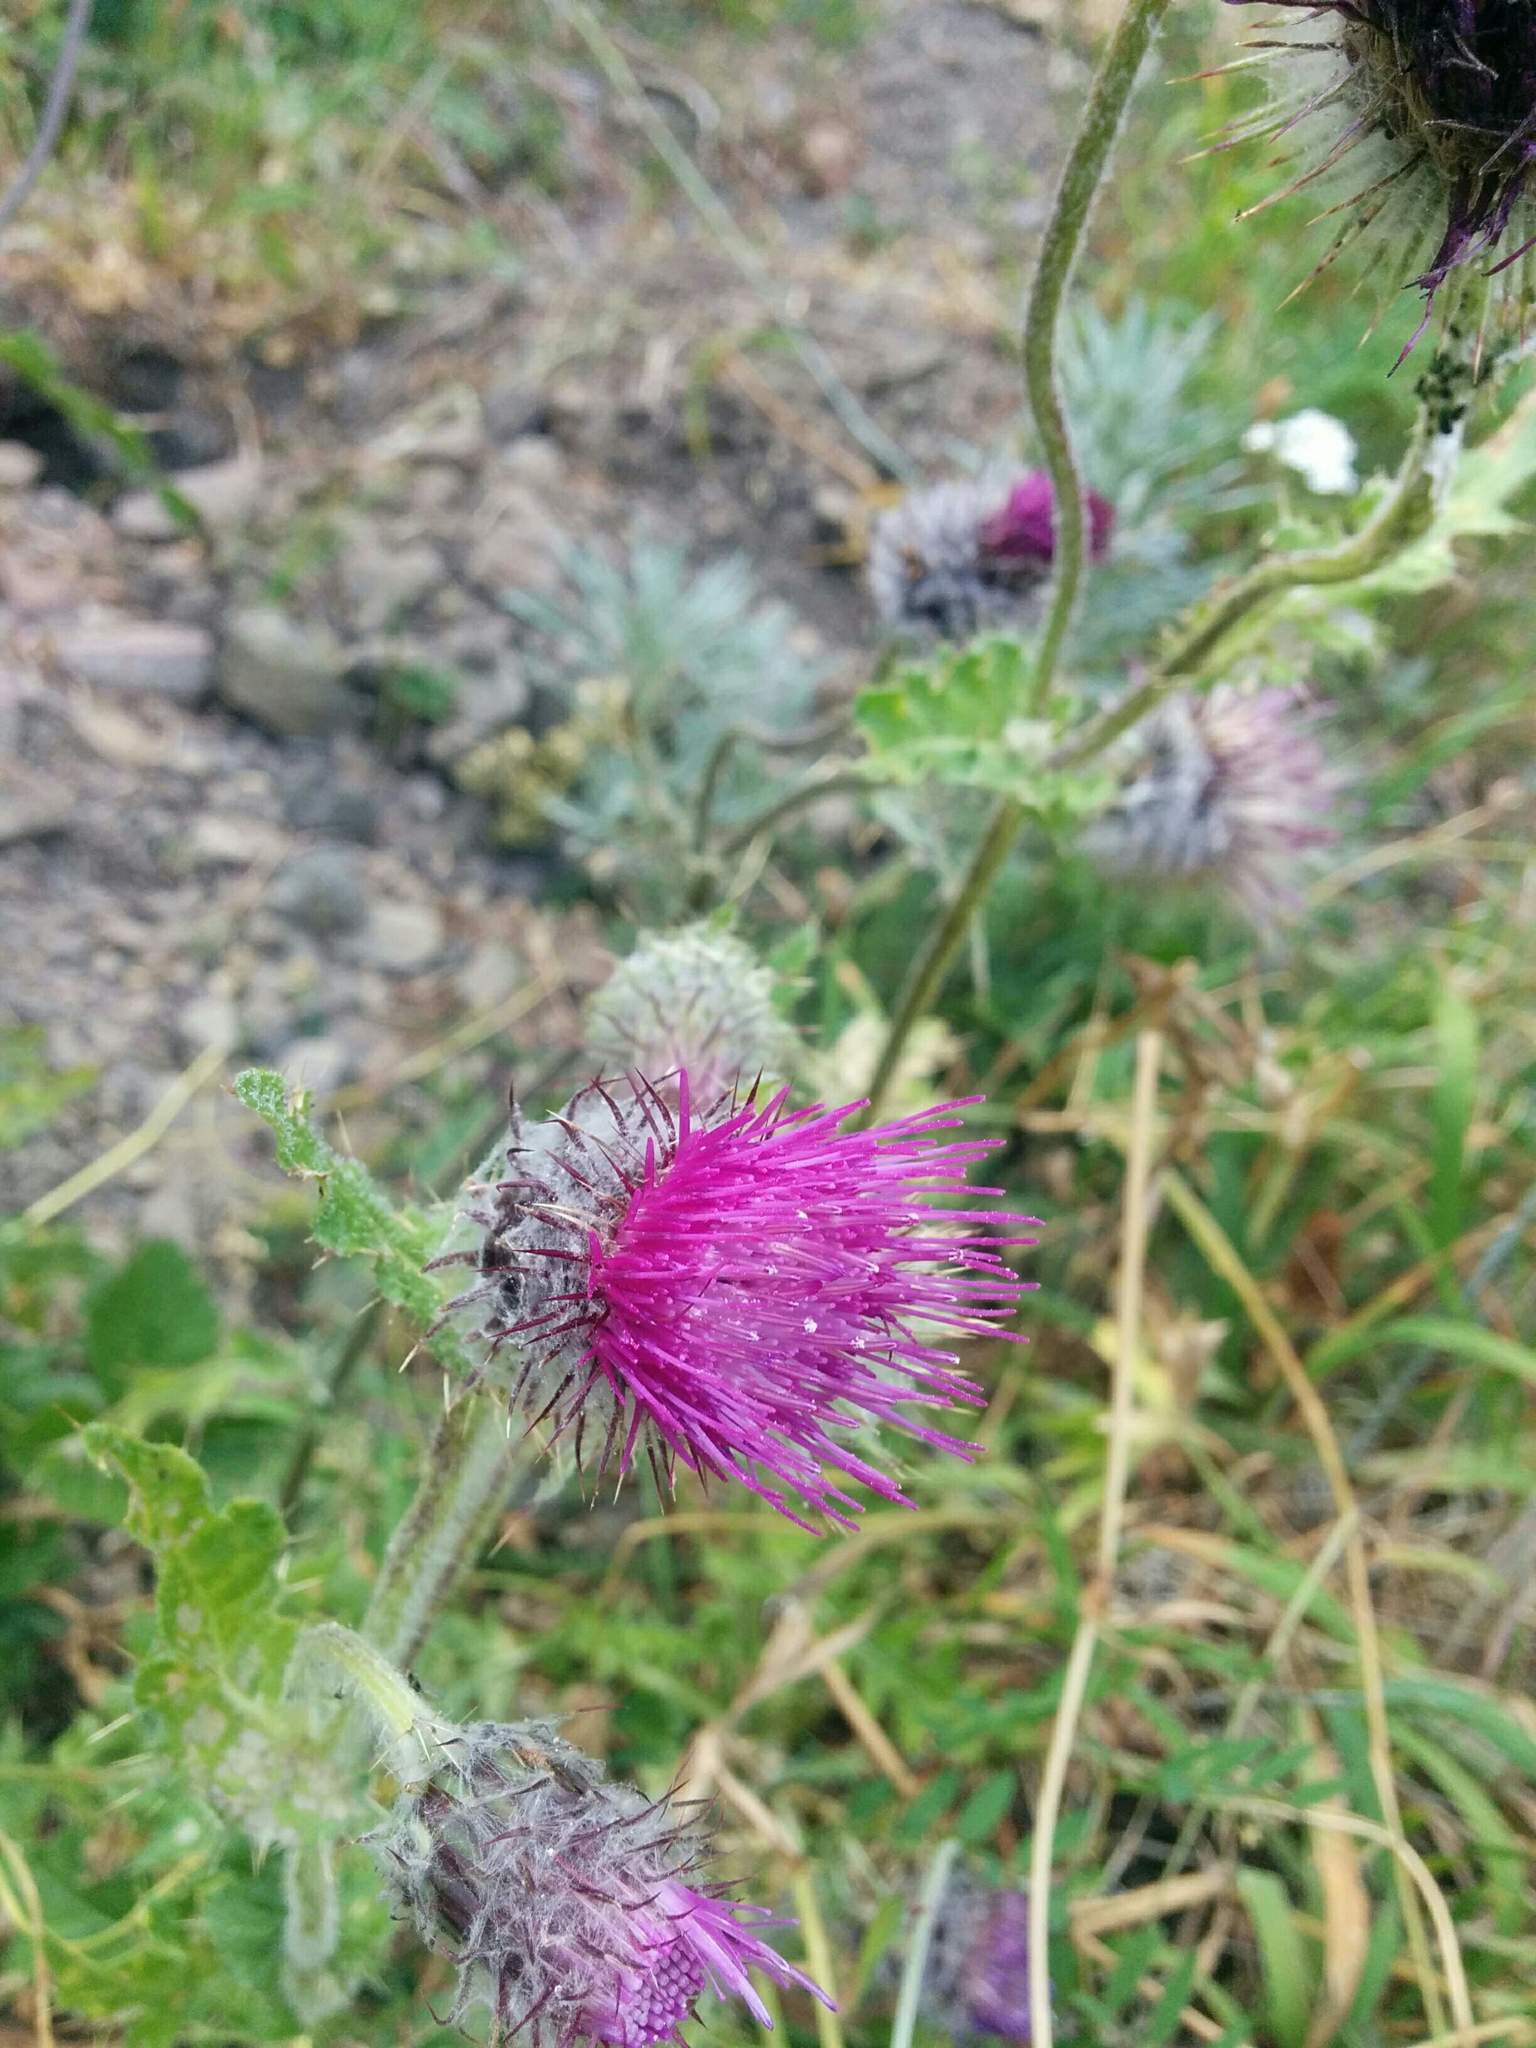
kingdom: Plantae
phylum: Tracheophyta
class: Magnoliopsida
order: Asterales
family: Asteraceae
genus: Cirsium
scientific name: Cirsium edule
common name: Indian thistle
